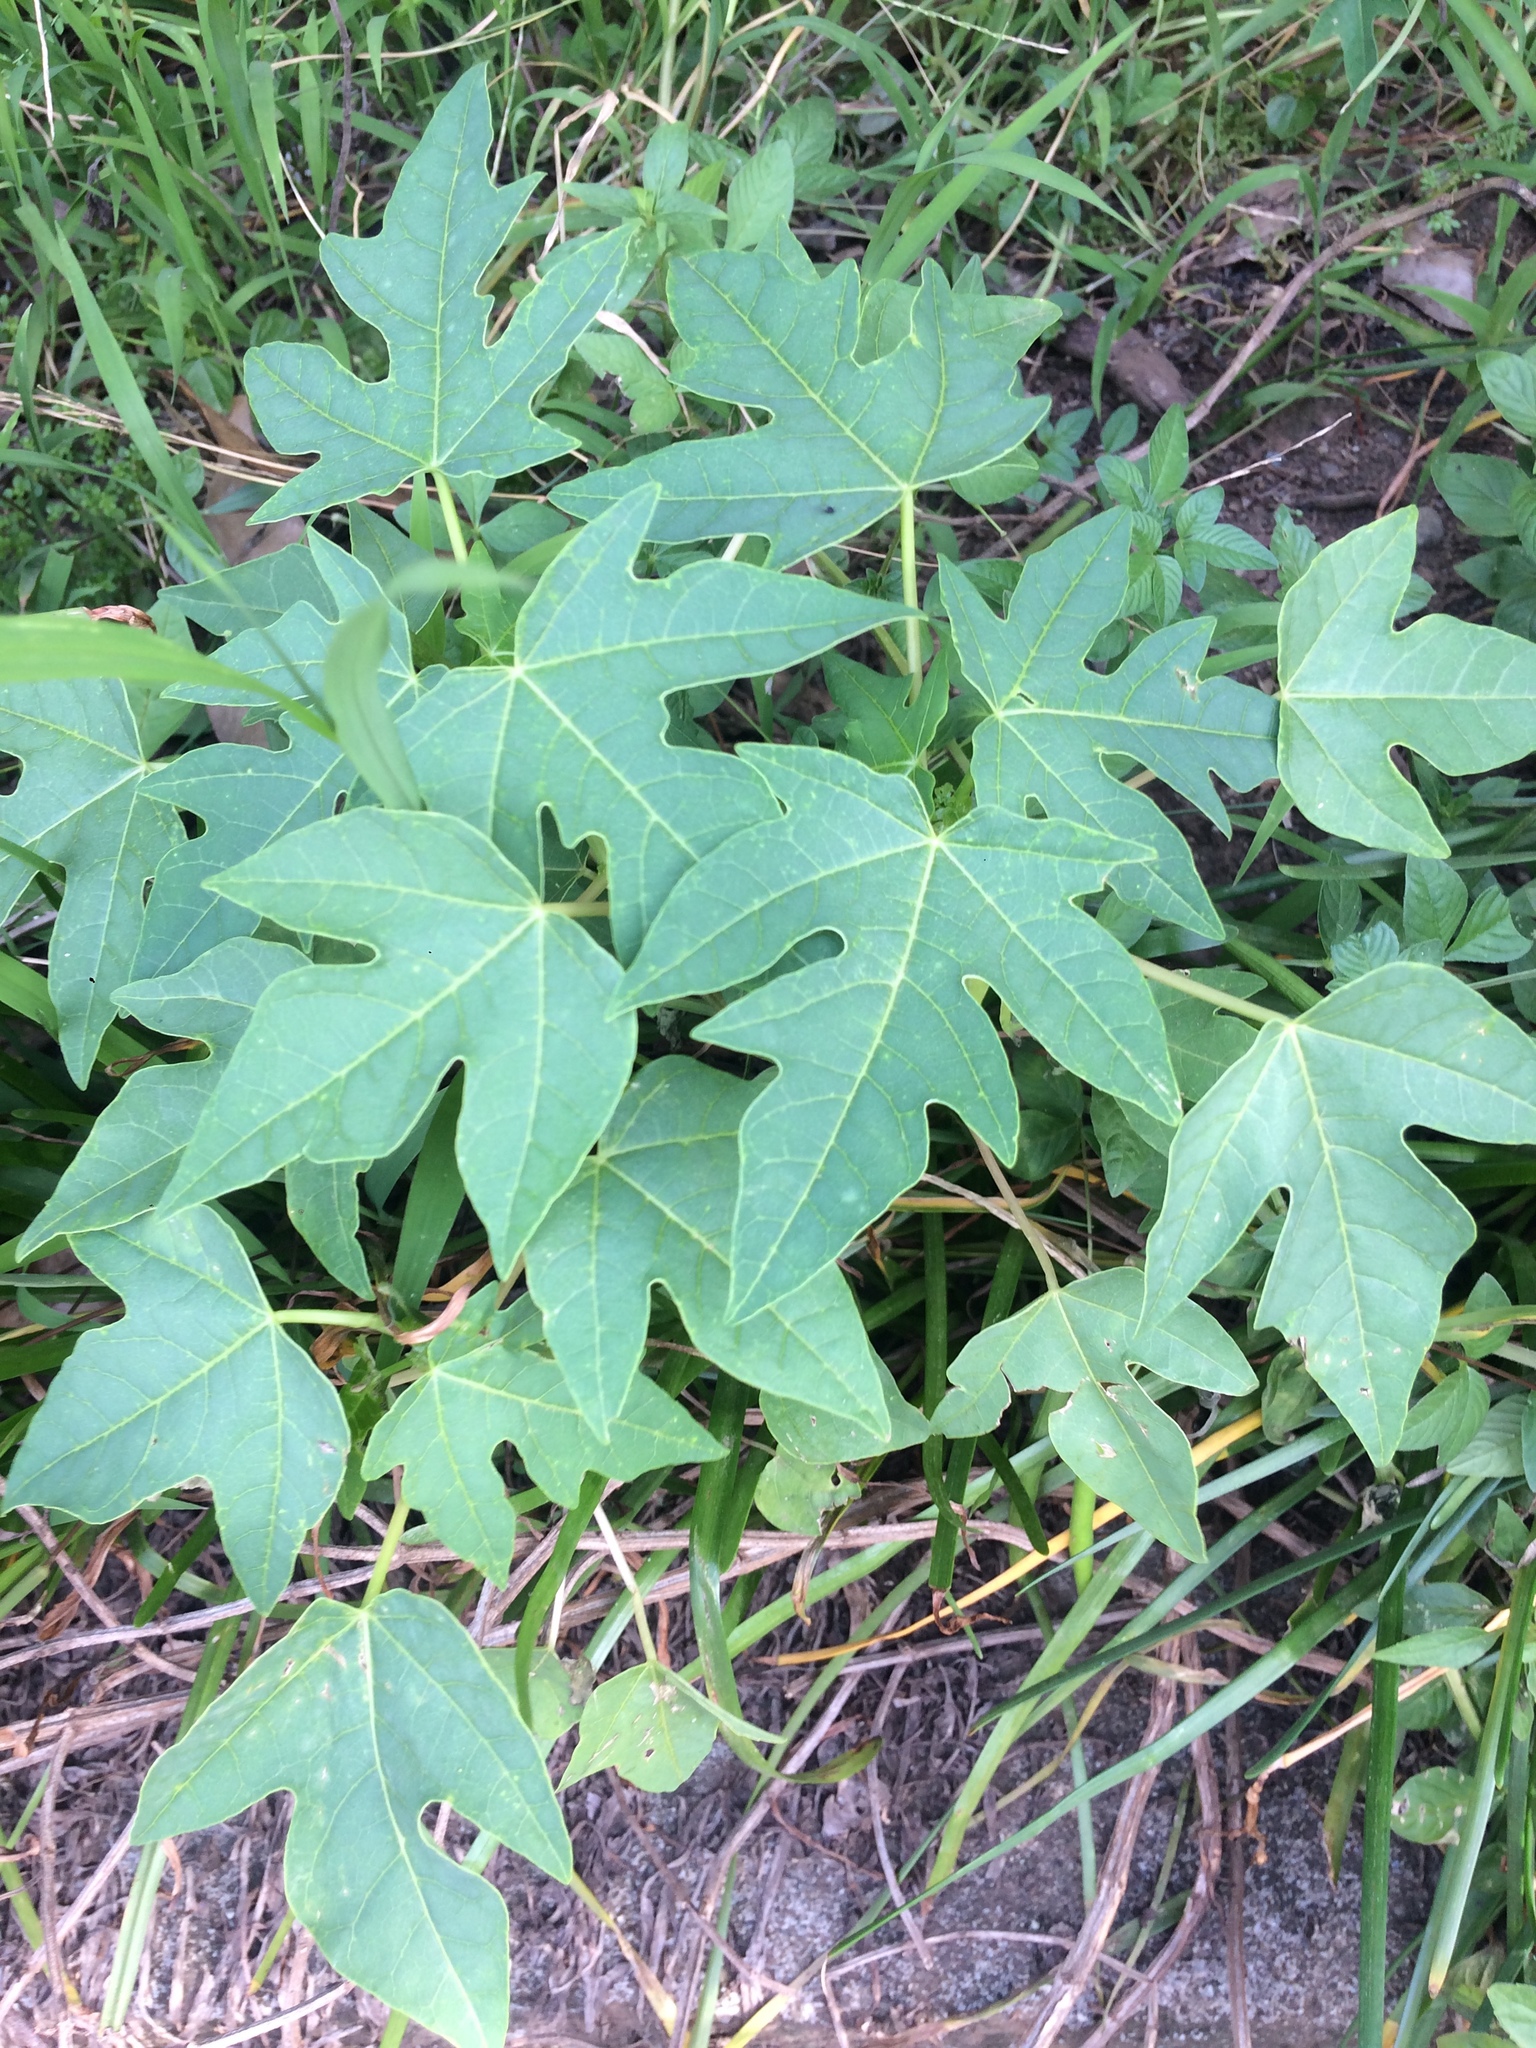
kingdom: Plantae
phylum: Tracheophyta
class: Magnoliopsida
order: Brassicales
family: Caricaceae
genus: Carica
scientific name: Carica papaya
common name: Papaya
